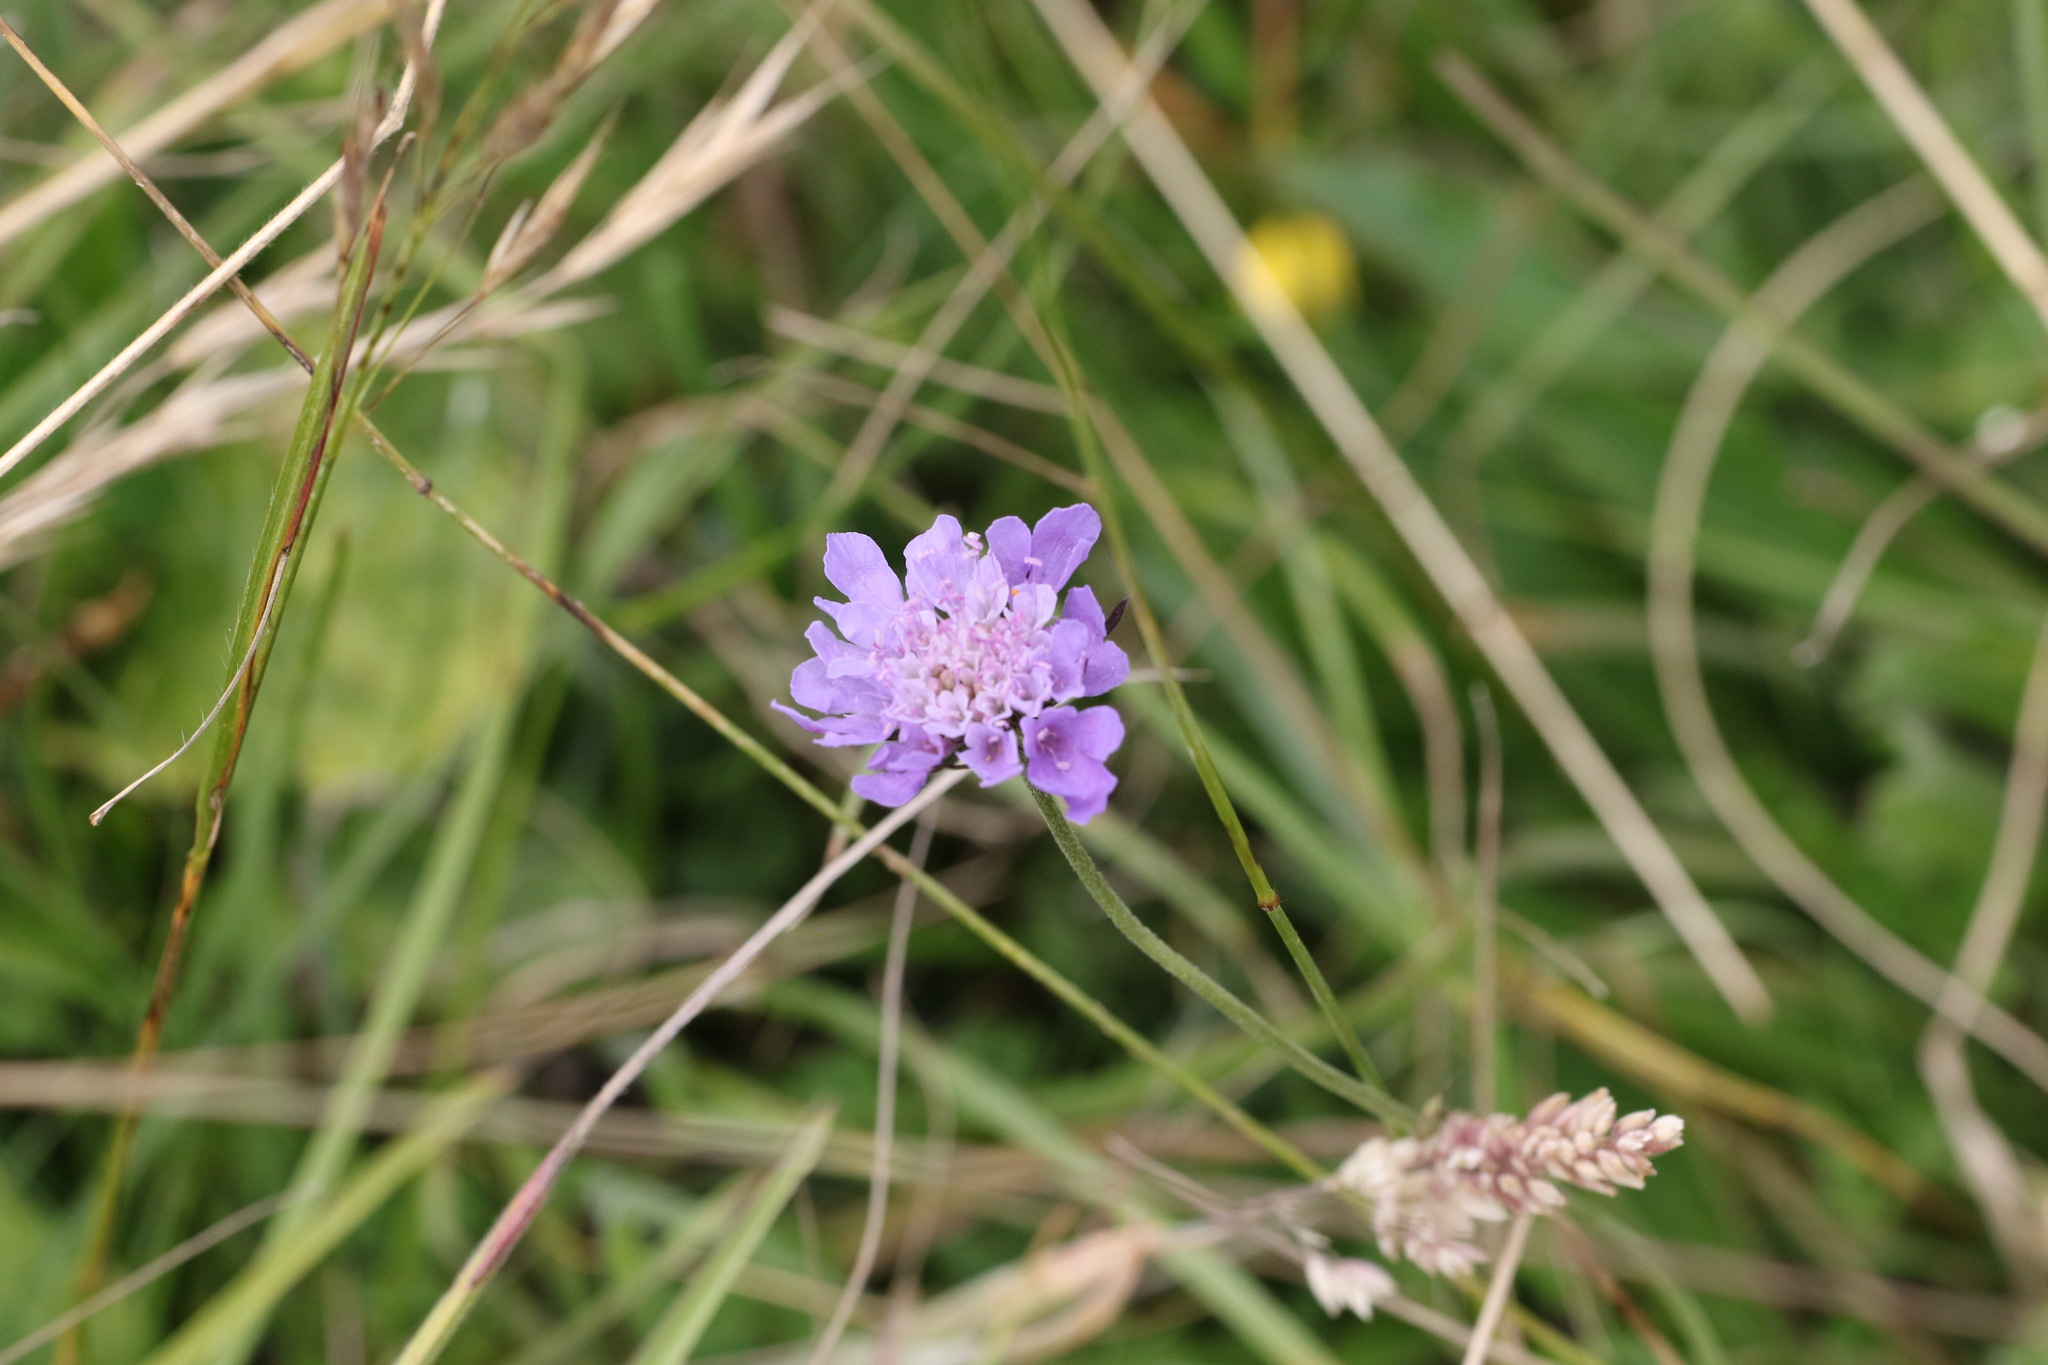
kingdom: Plantae
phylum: Tracheophyta
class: Magnoliopsida
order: Dipsacales
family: Caprifoliaceae
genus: Scabiosa
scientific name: Scabiosa columbaria
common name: Small scabious
